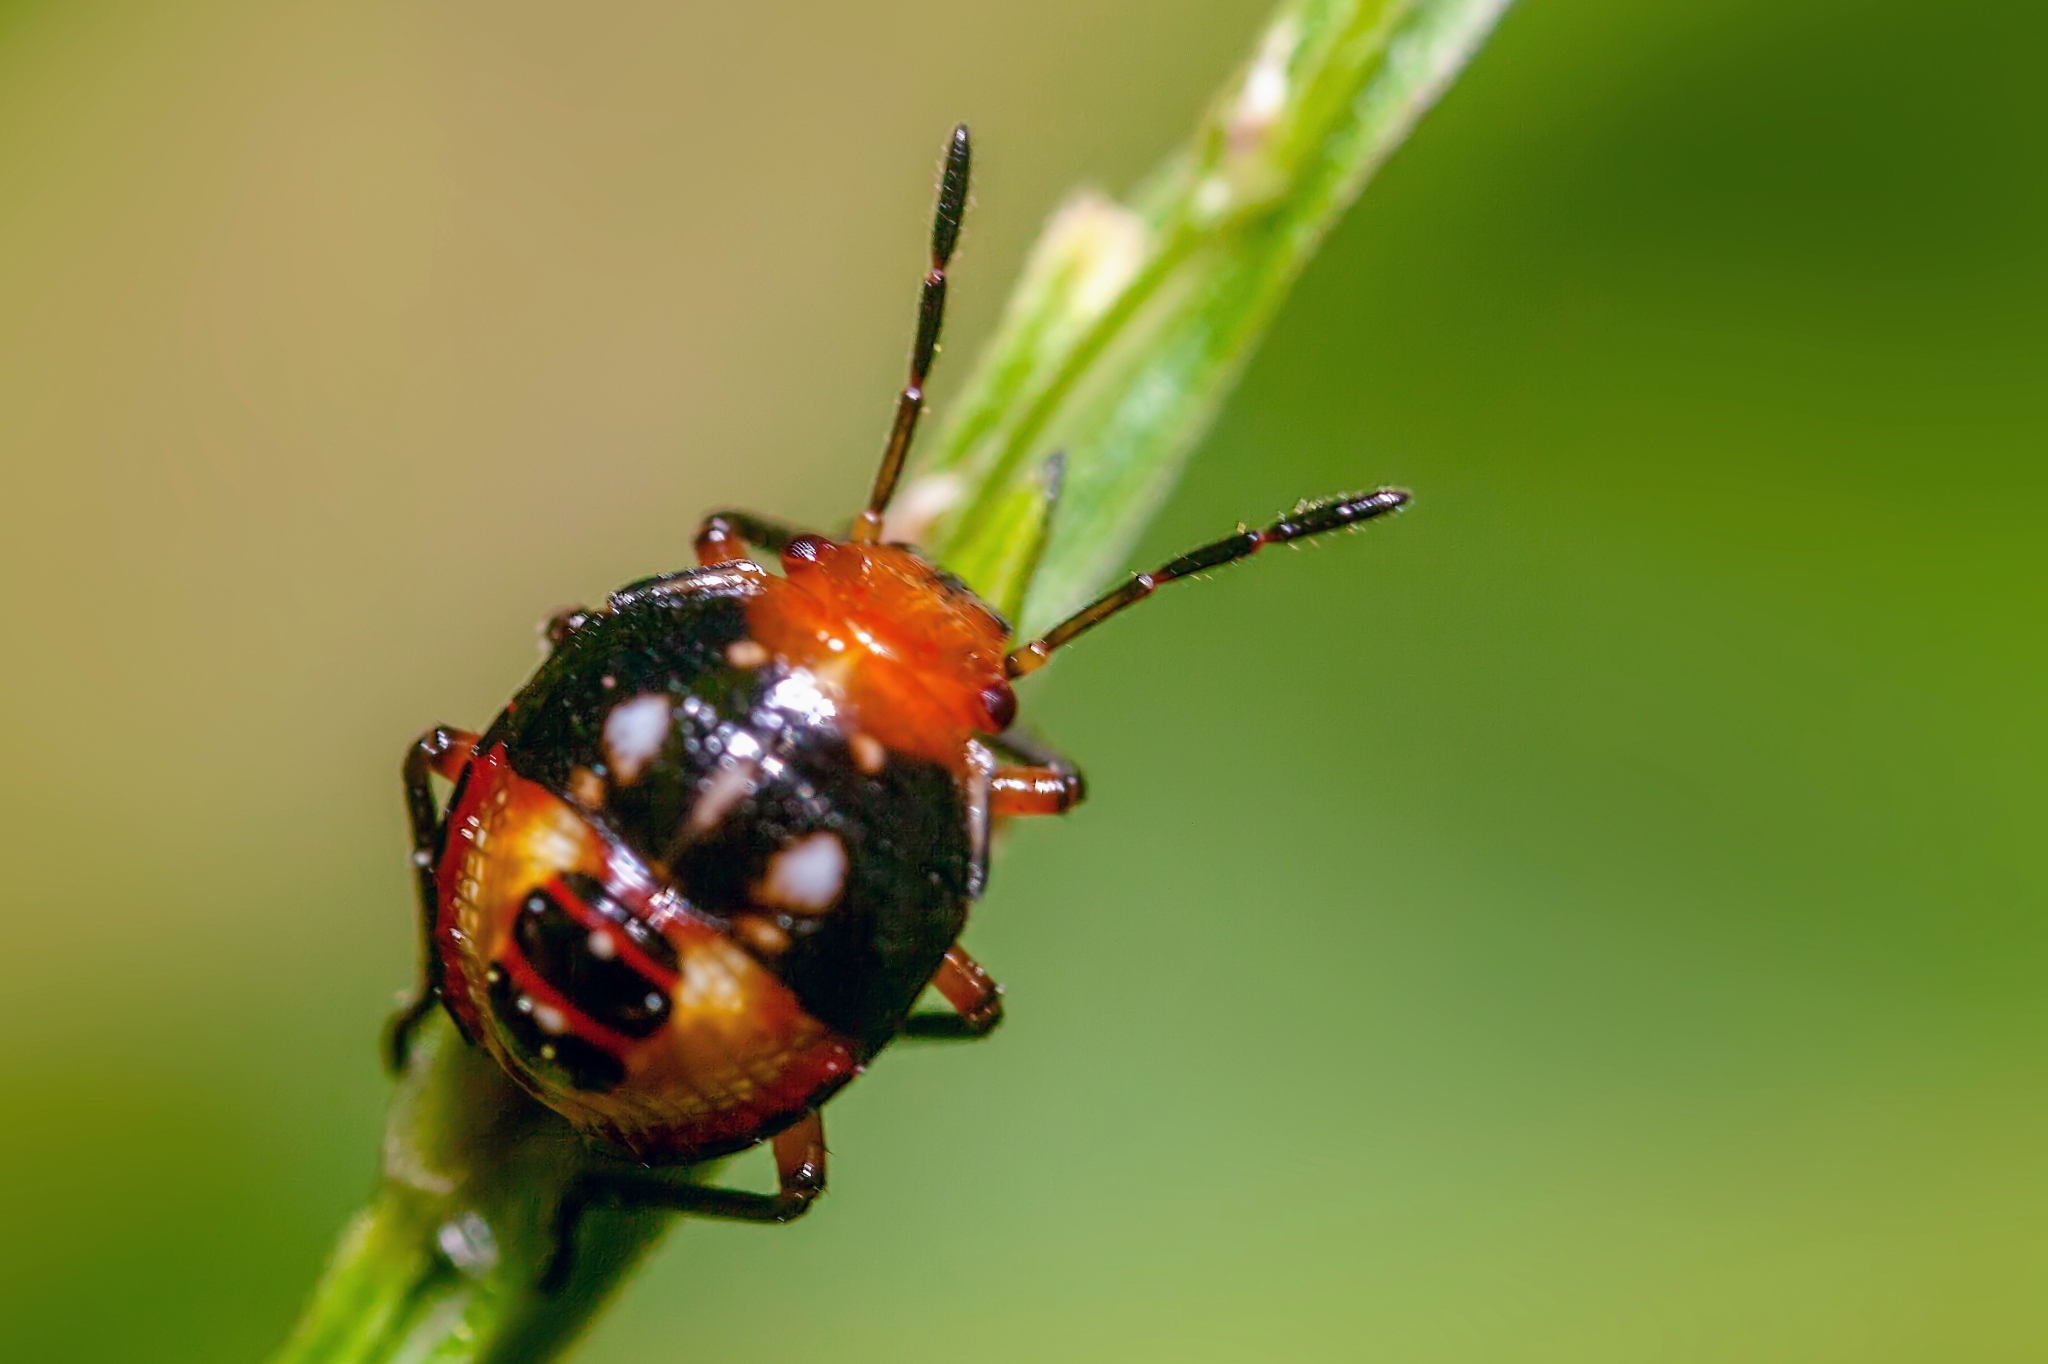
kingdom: Animalia
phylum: Arthropoda
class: Insecta
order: Hemiptera
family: Pentatomidae
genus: Mormidea
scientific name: Mormidea pama
